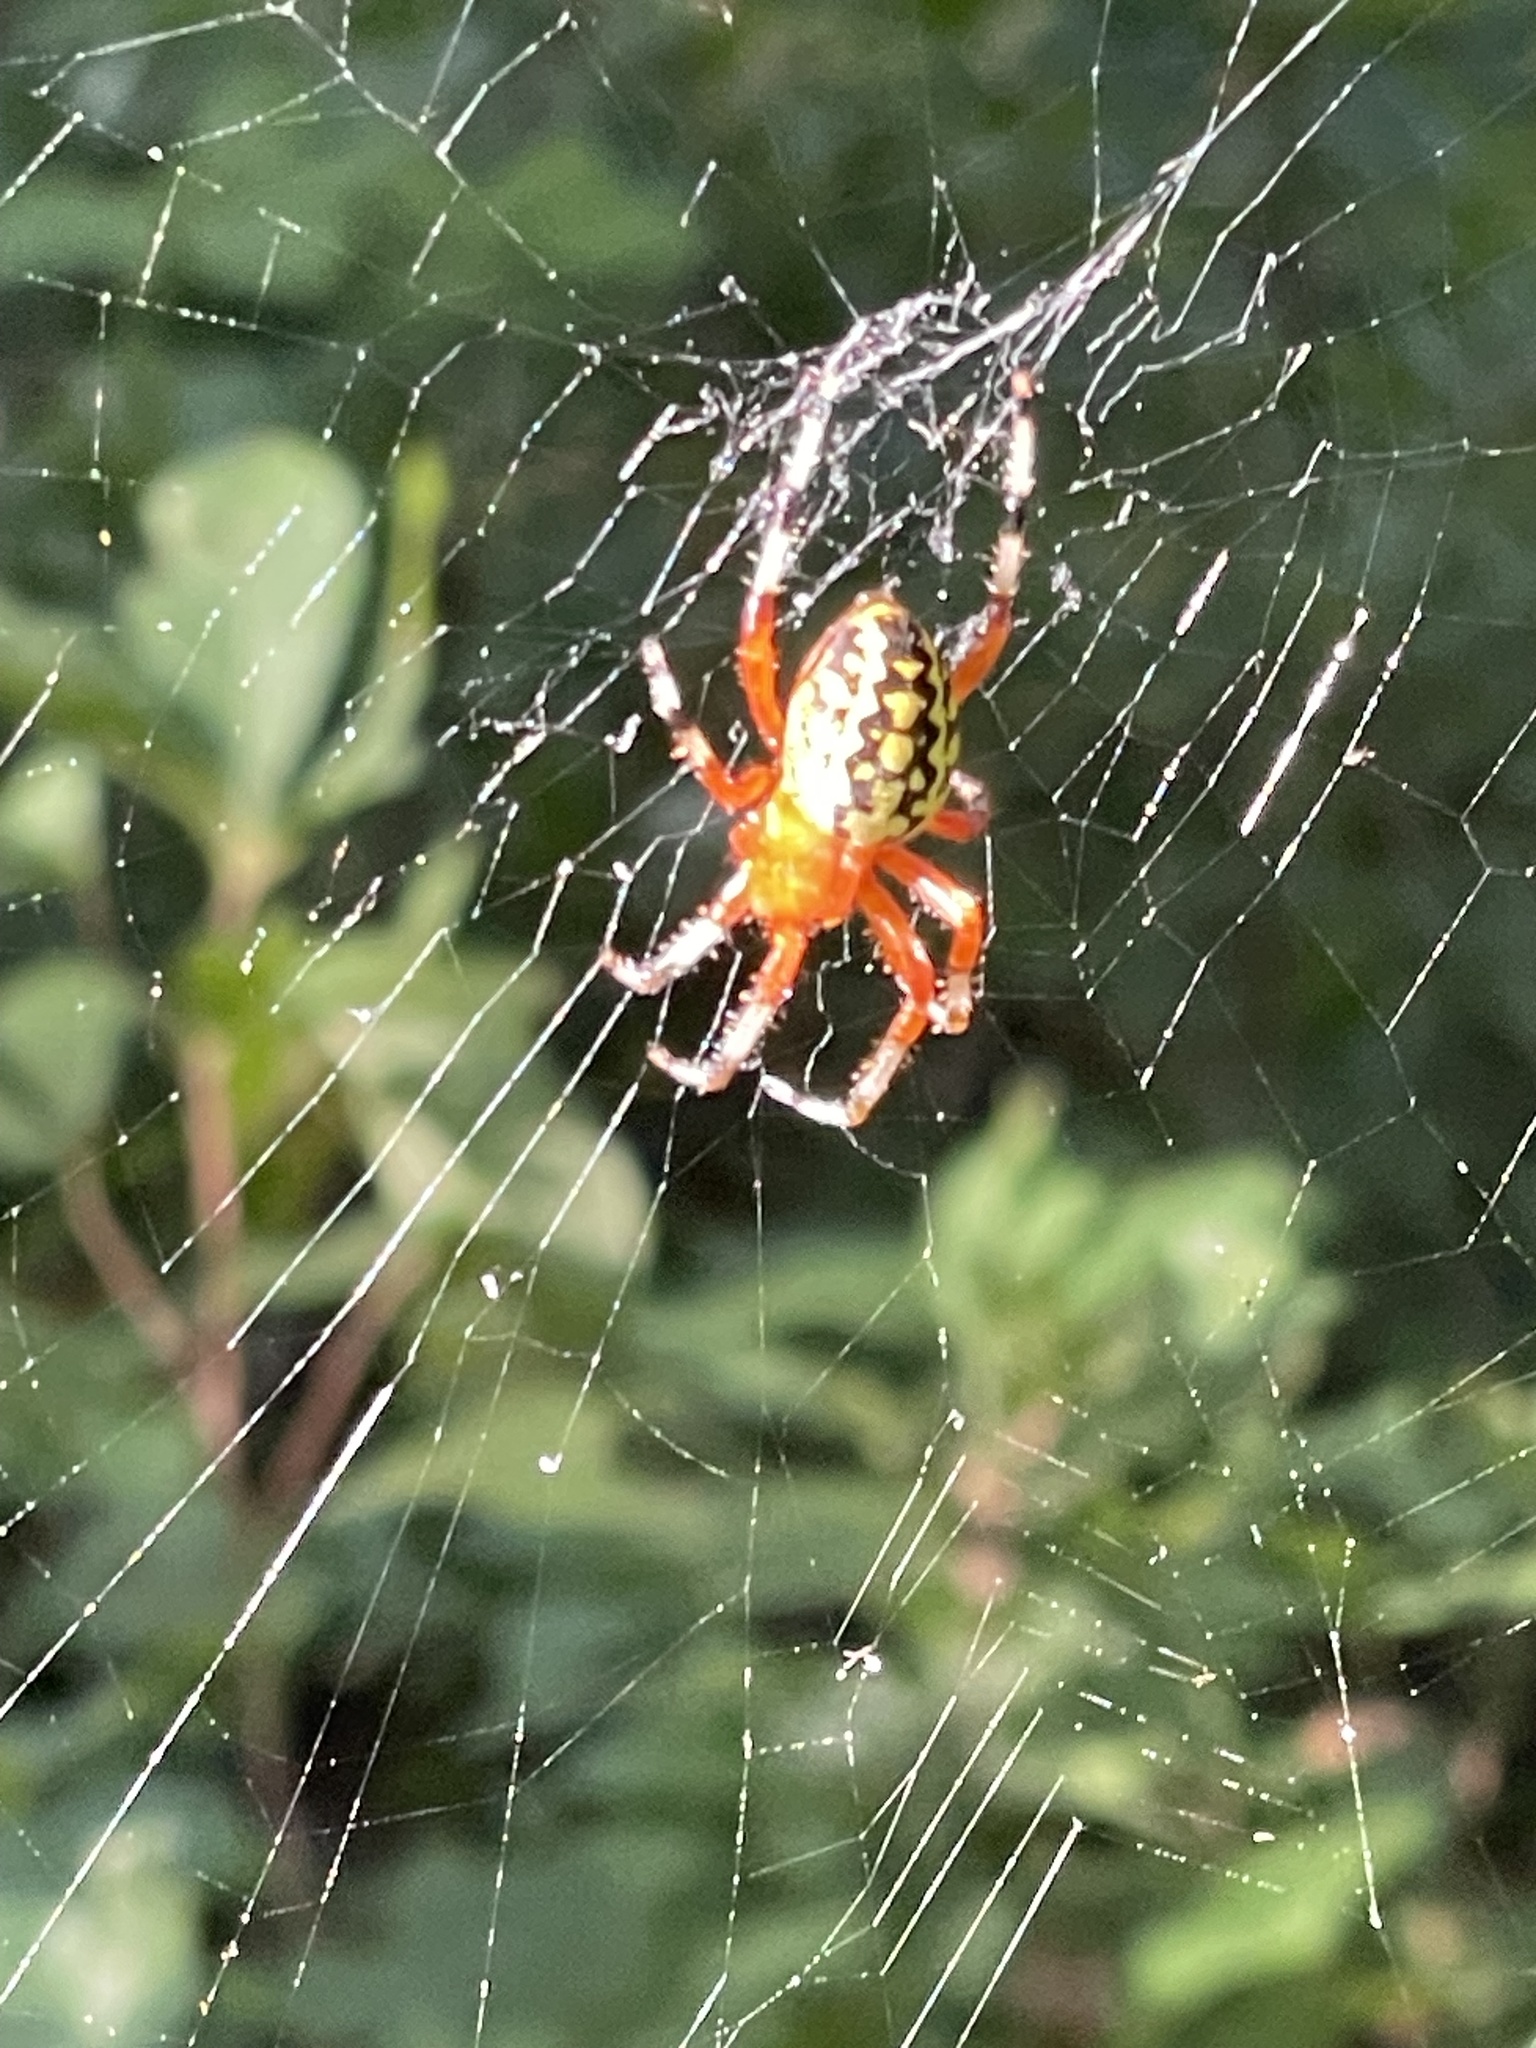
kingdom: Animalia
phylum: Arthropoda
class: Arachnida
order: Araneae
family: Araneidae
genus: Araneus
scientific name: Araneus marmoreus
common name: Marbled orbweaver
